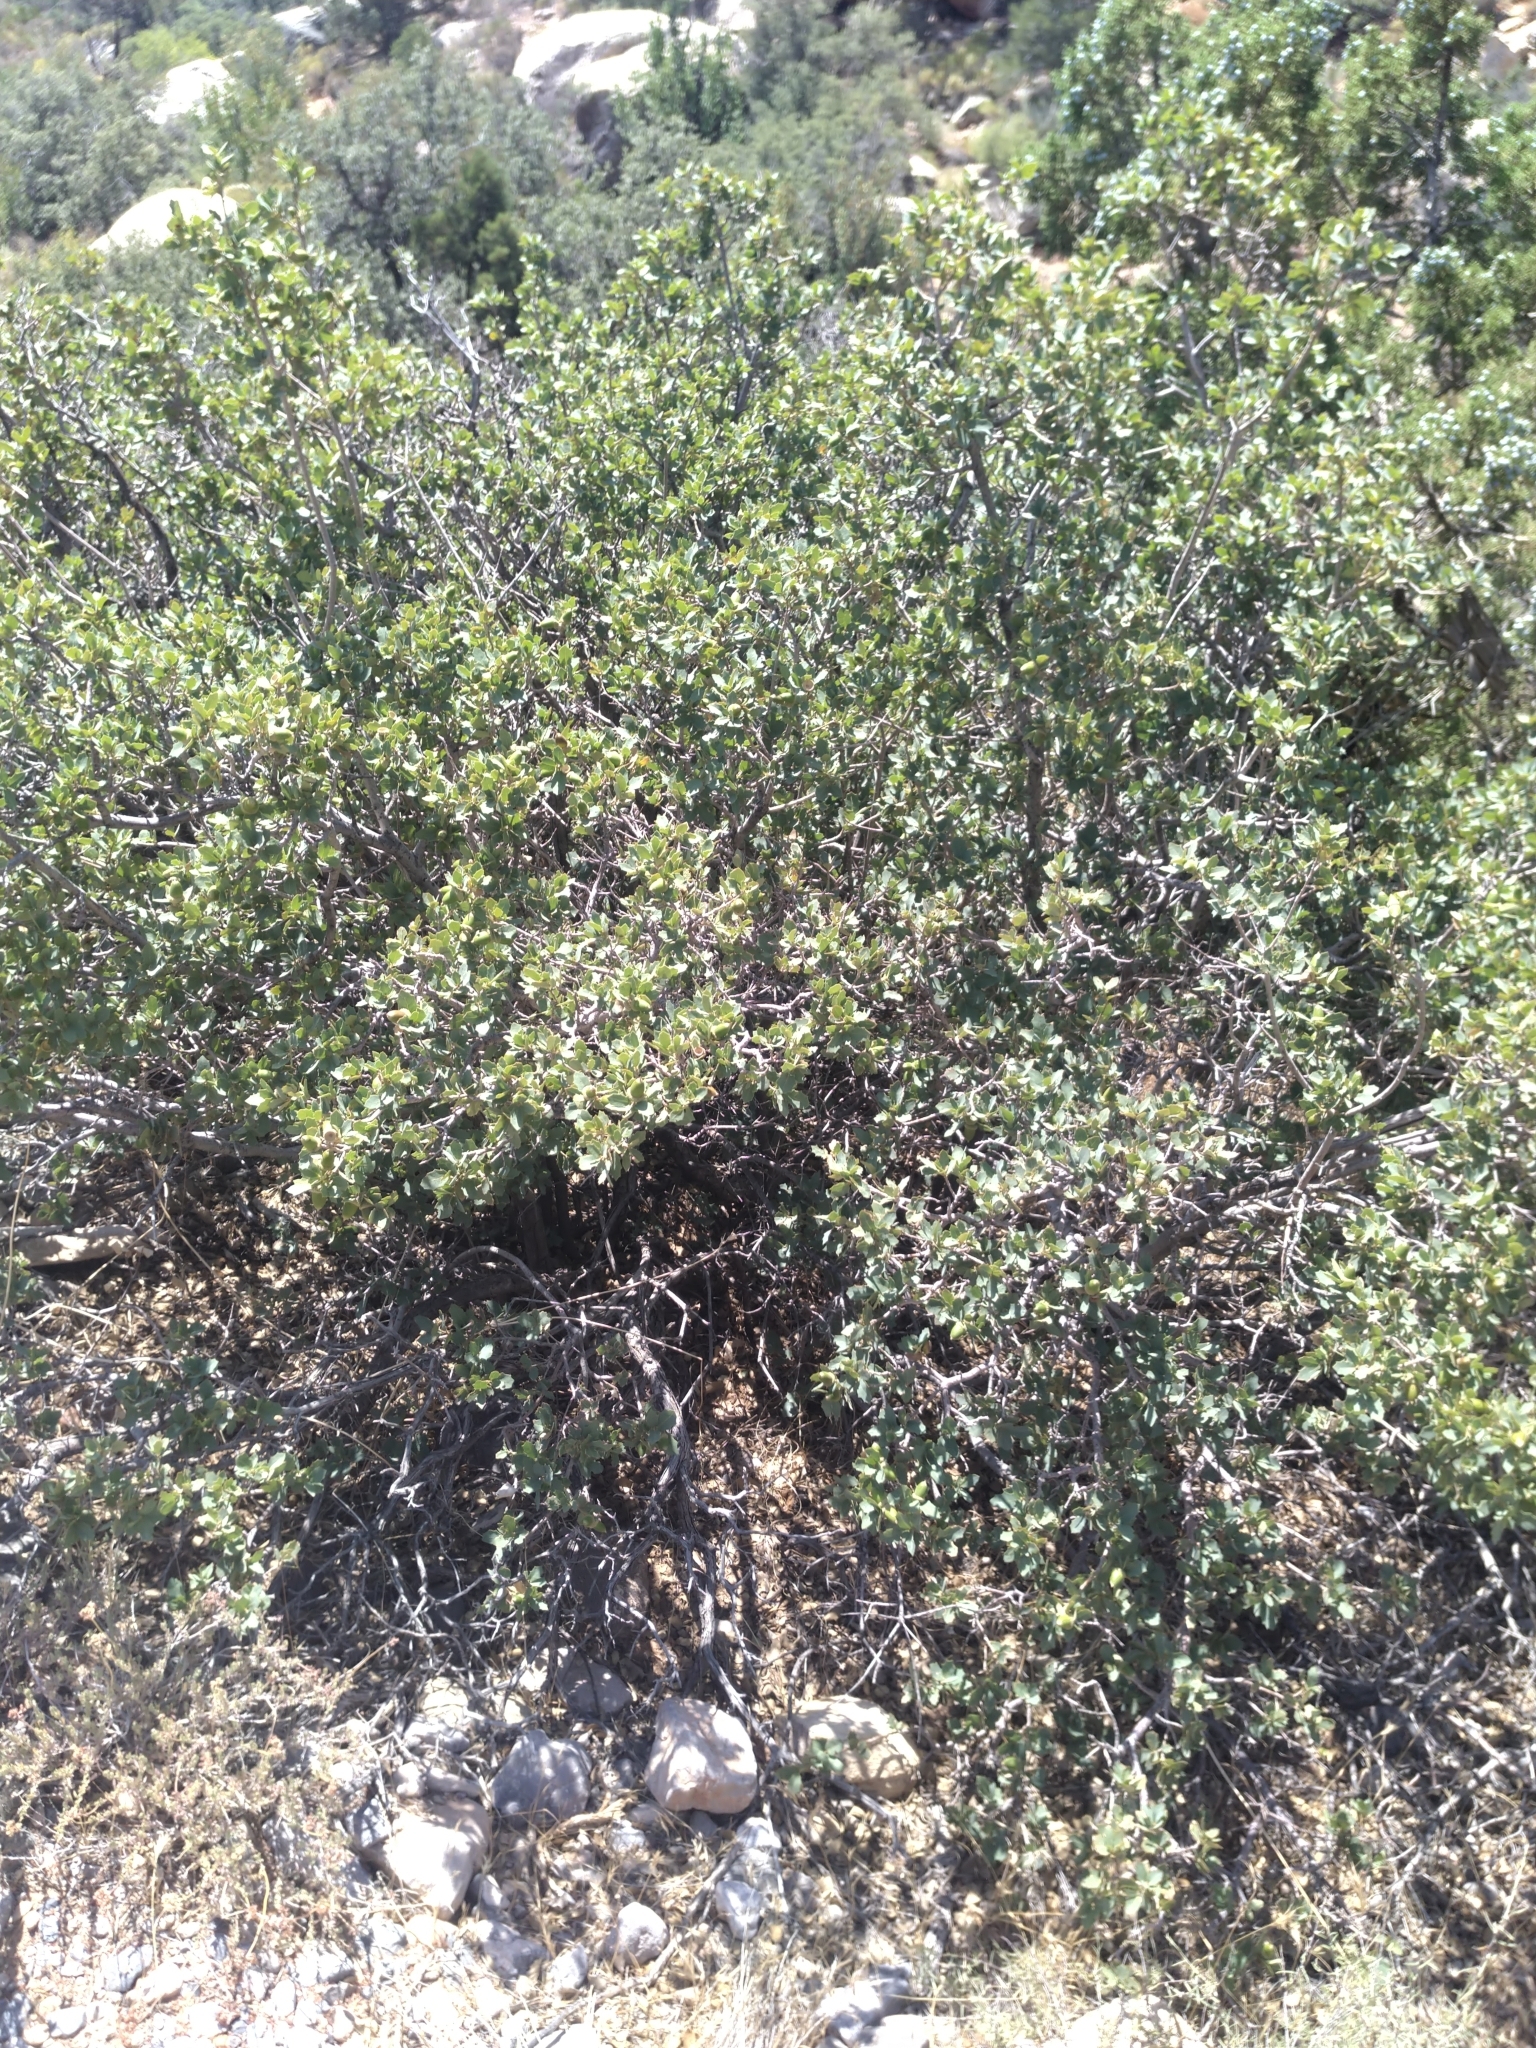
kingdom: Plantae
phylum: Tracheophyta
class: Magnoliopsida
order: Fagales
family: Fagaceae
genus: Quercus
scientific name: Quercus turbinella
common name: Sonoran scrub oak
